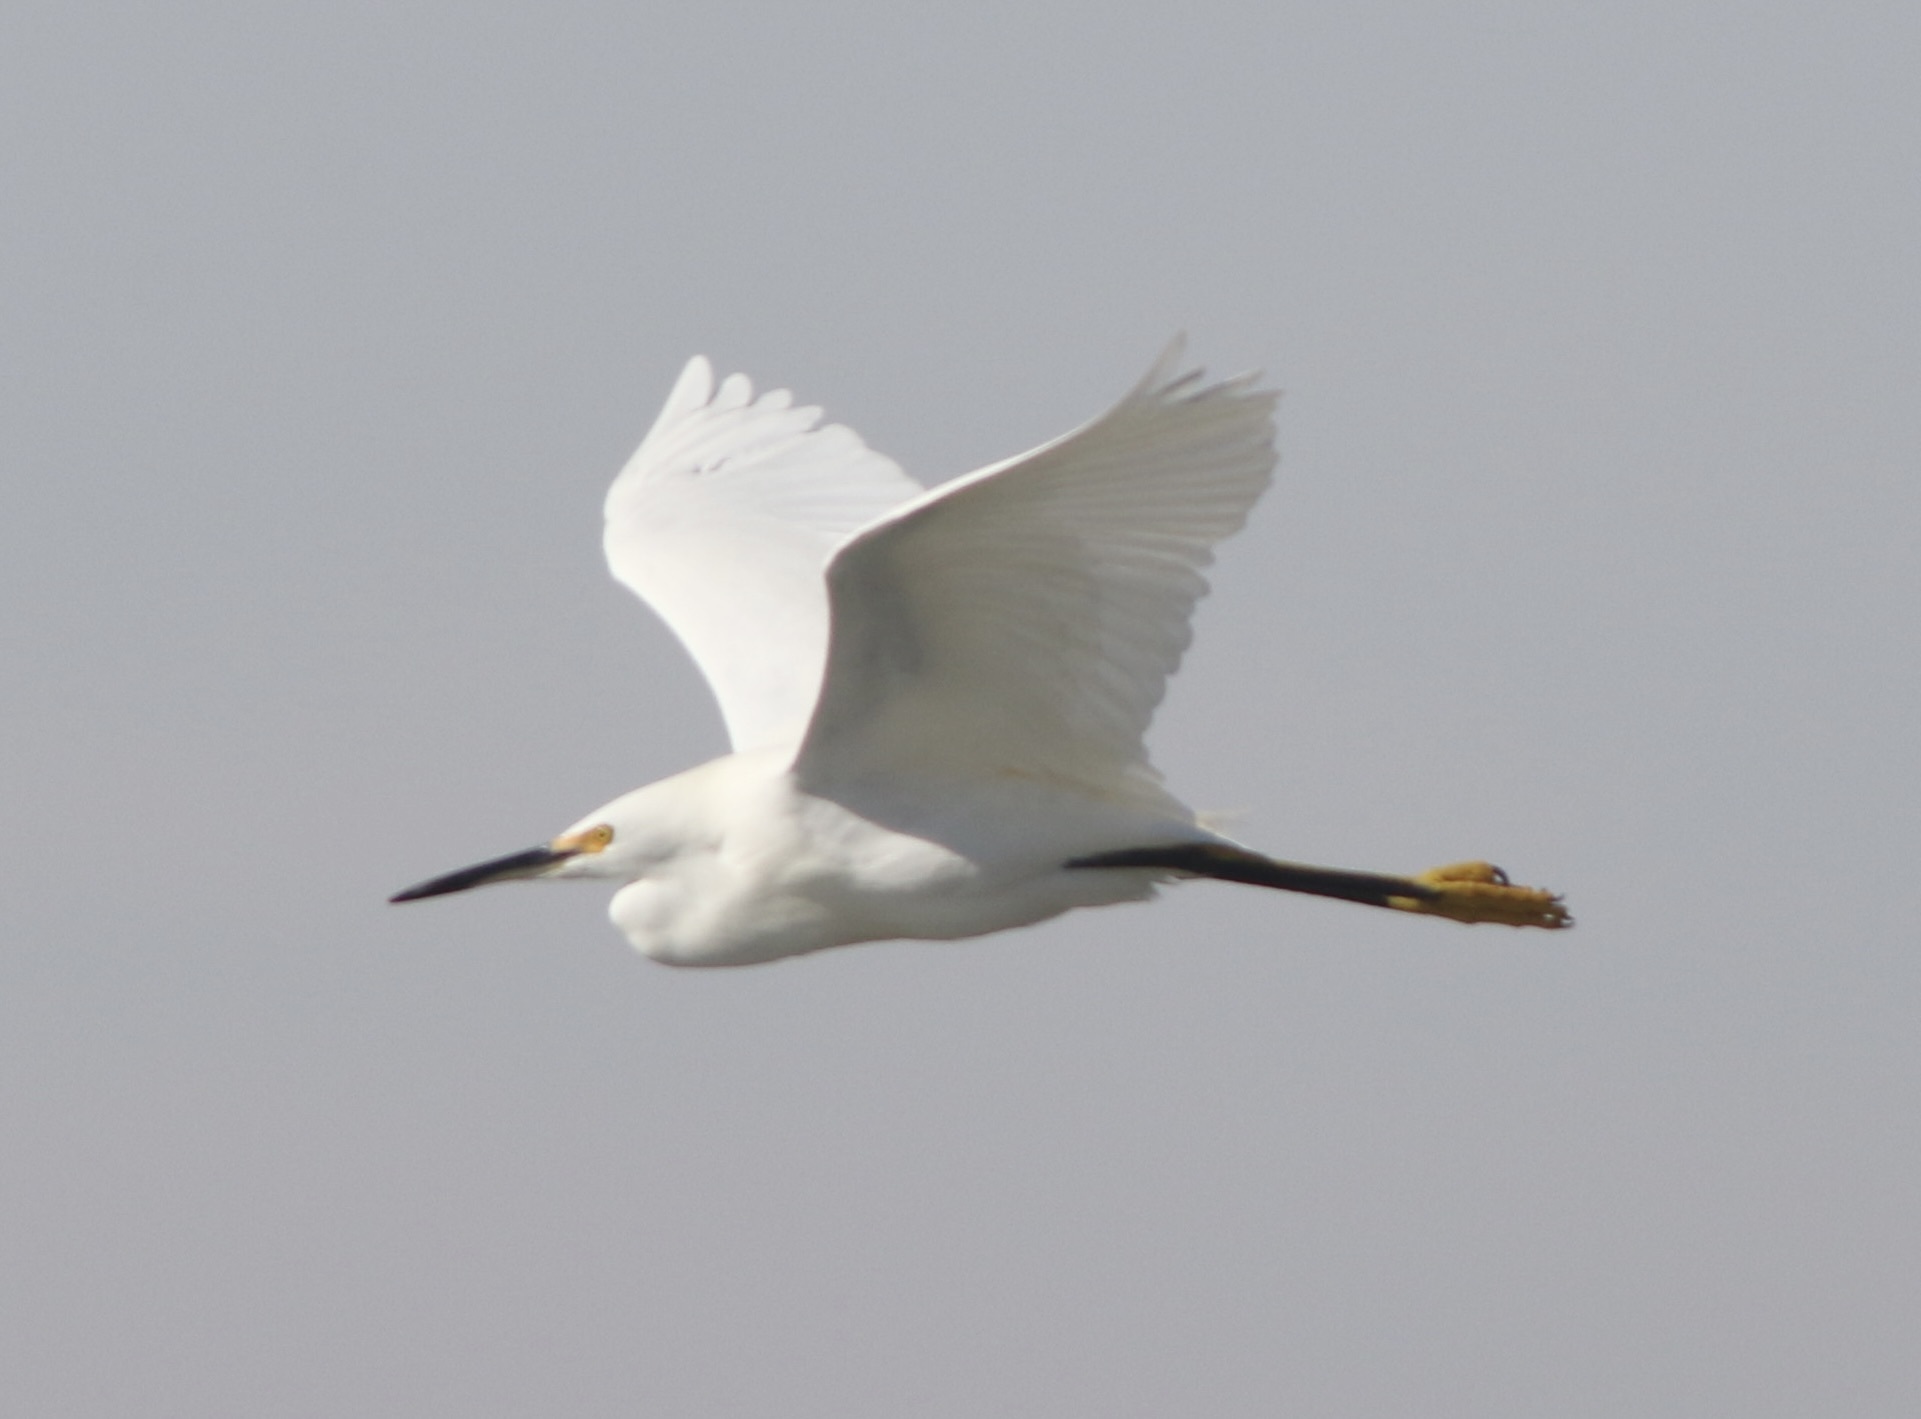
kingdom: Animalia
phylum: Chordata
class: Aves
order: Pelecaniformes
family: Ardeidae
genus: Egretta
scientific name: Egretta thula
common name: Snowy egret
